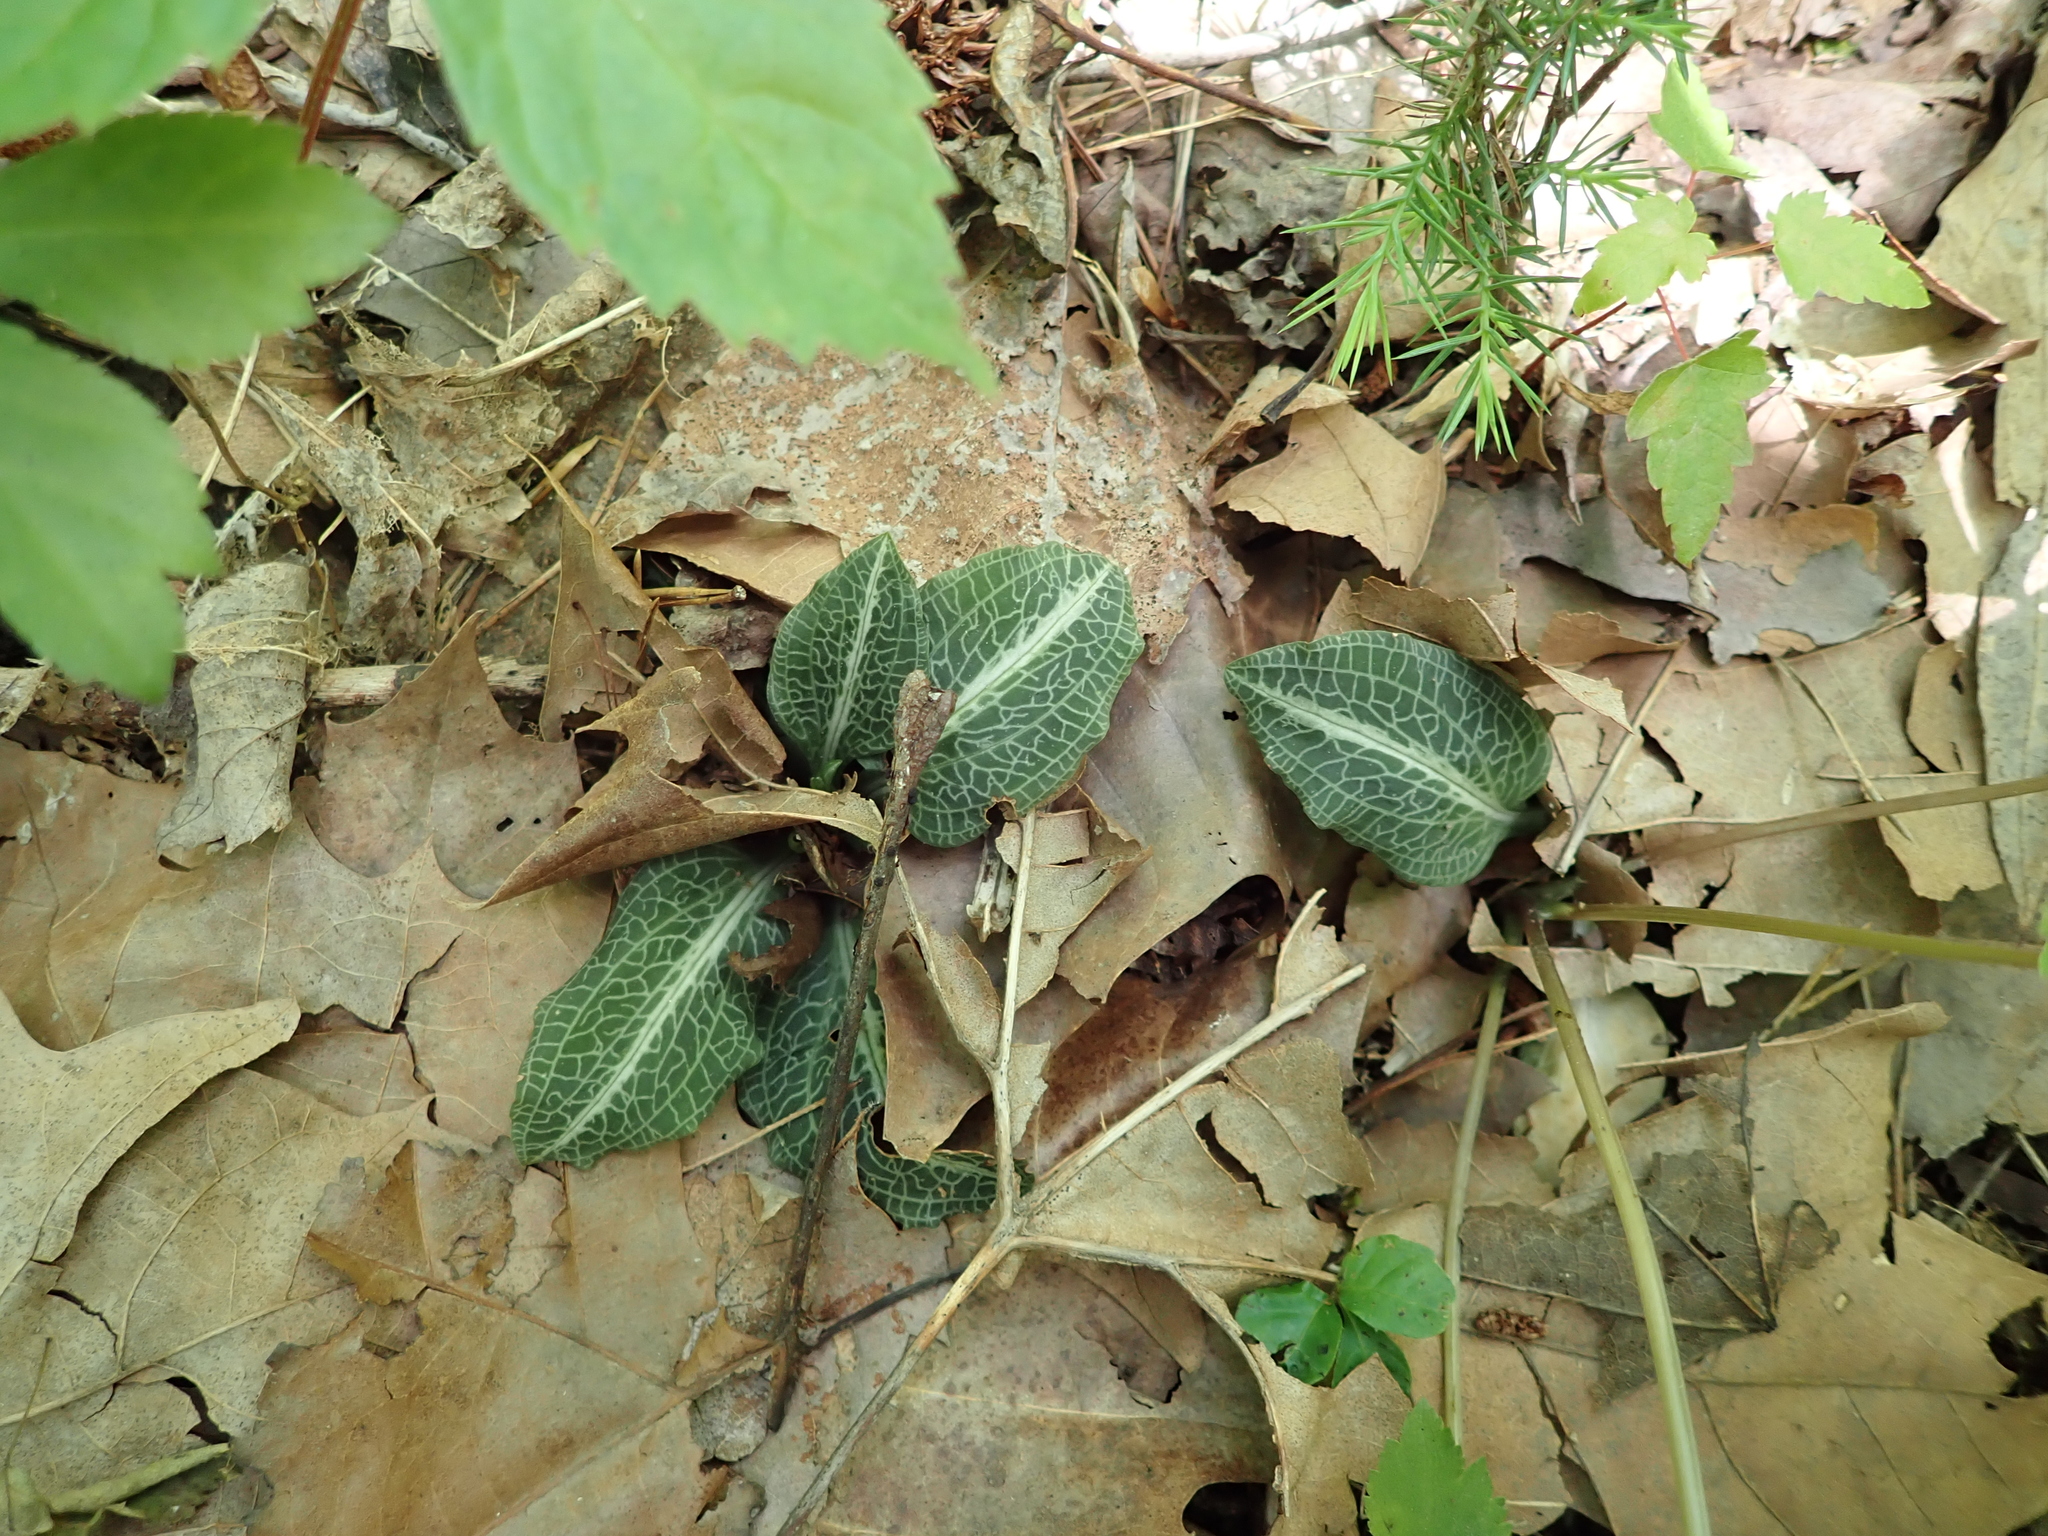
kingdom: Plantae
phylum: Tracheophyta
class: Liliopsida
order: Asparagales
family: Orchidaceae
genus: Goodyera
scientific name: Goodyera pubescens
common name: Downy rattlesnake-plantain
